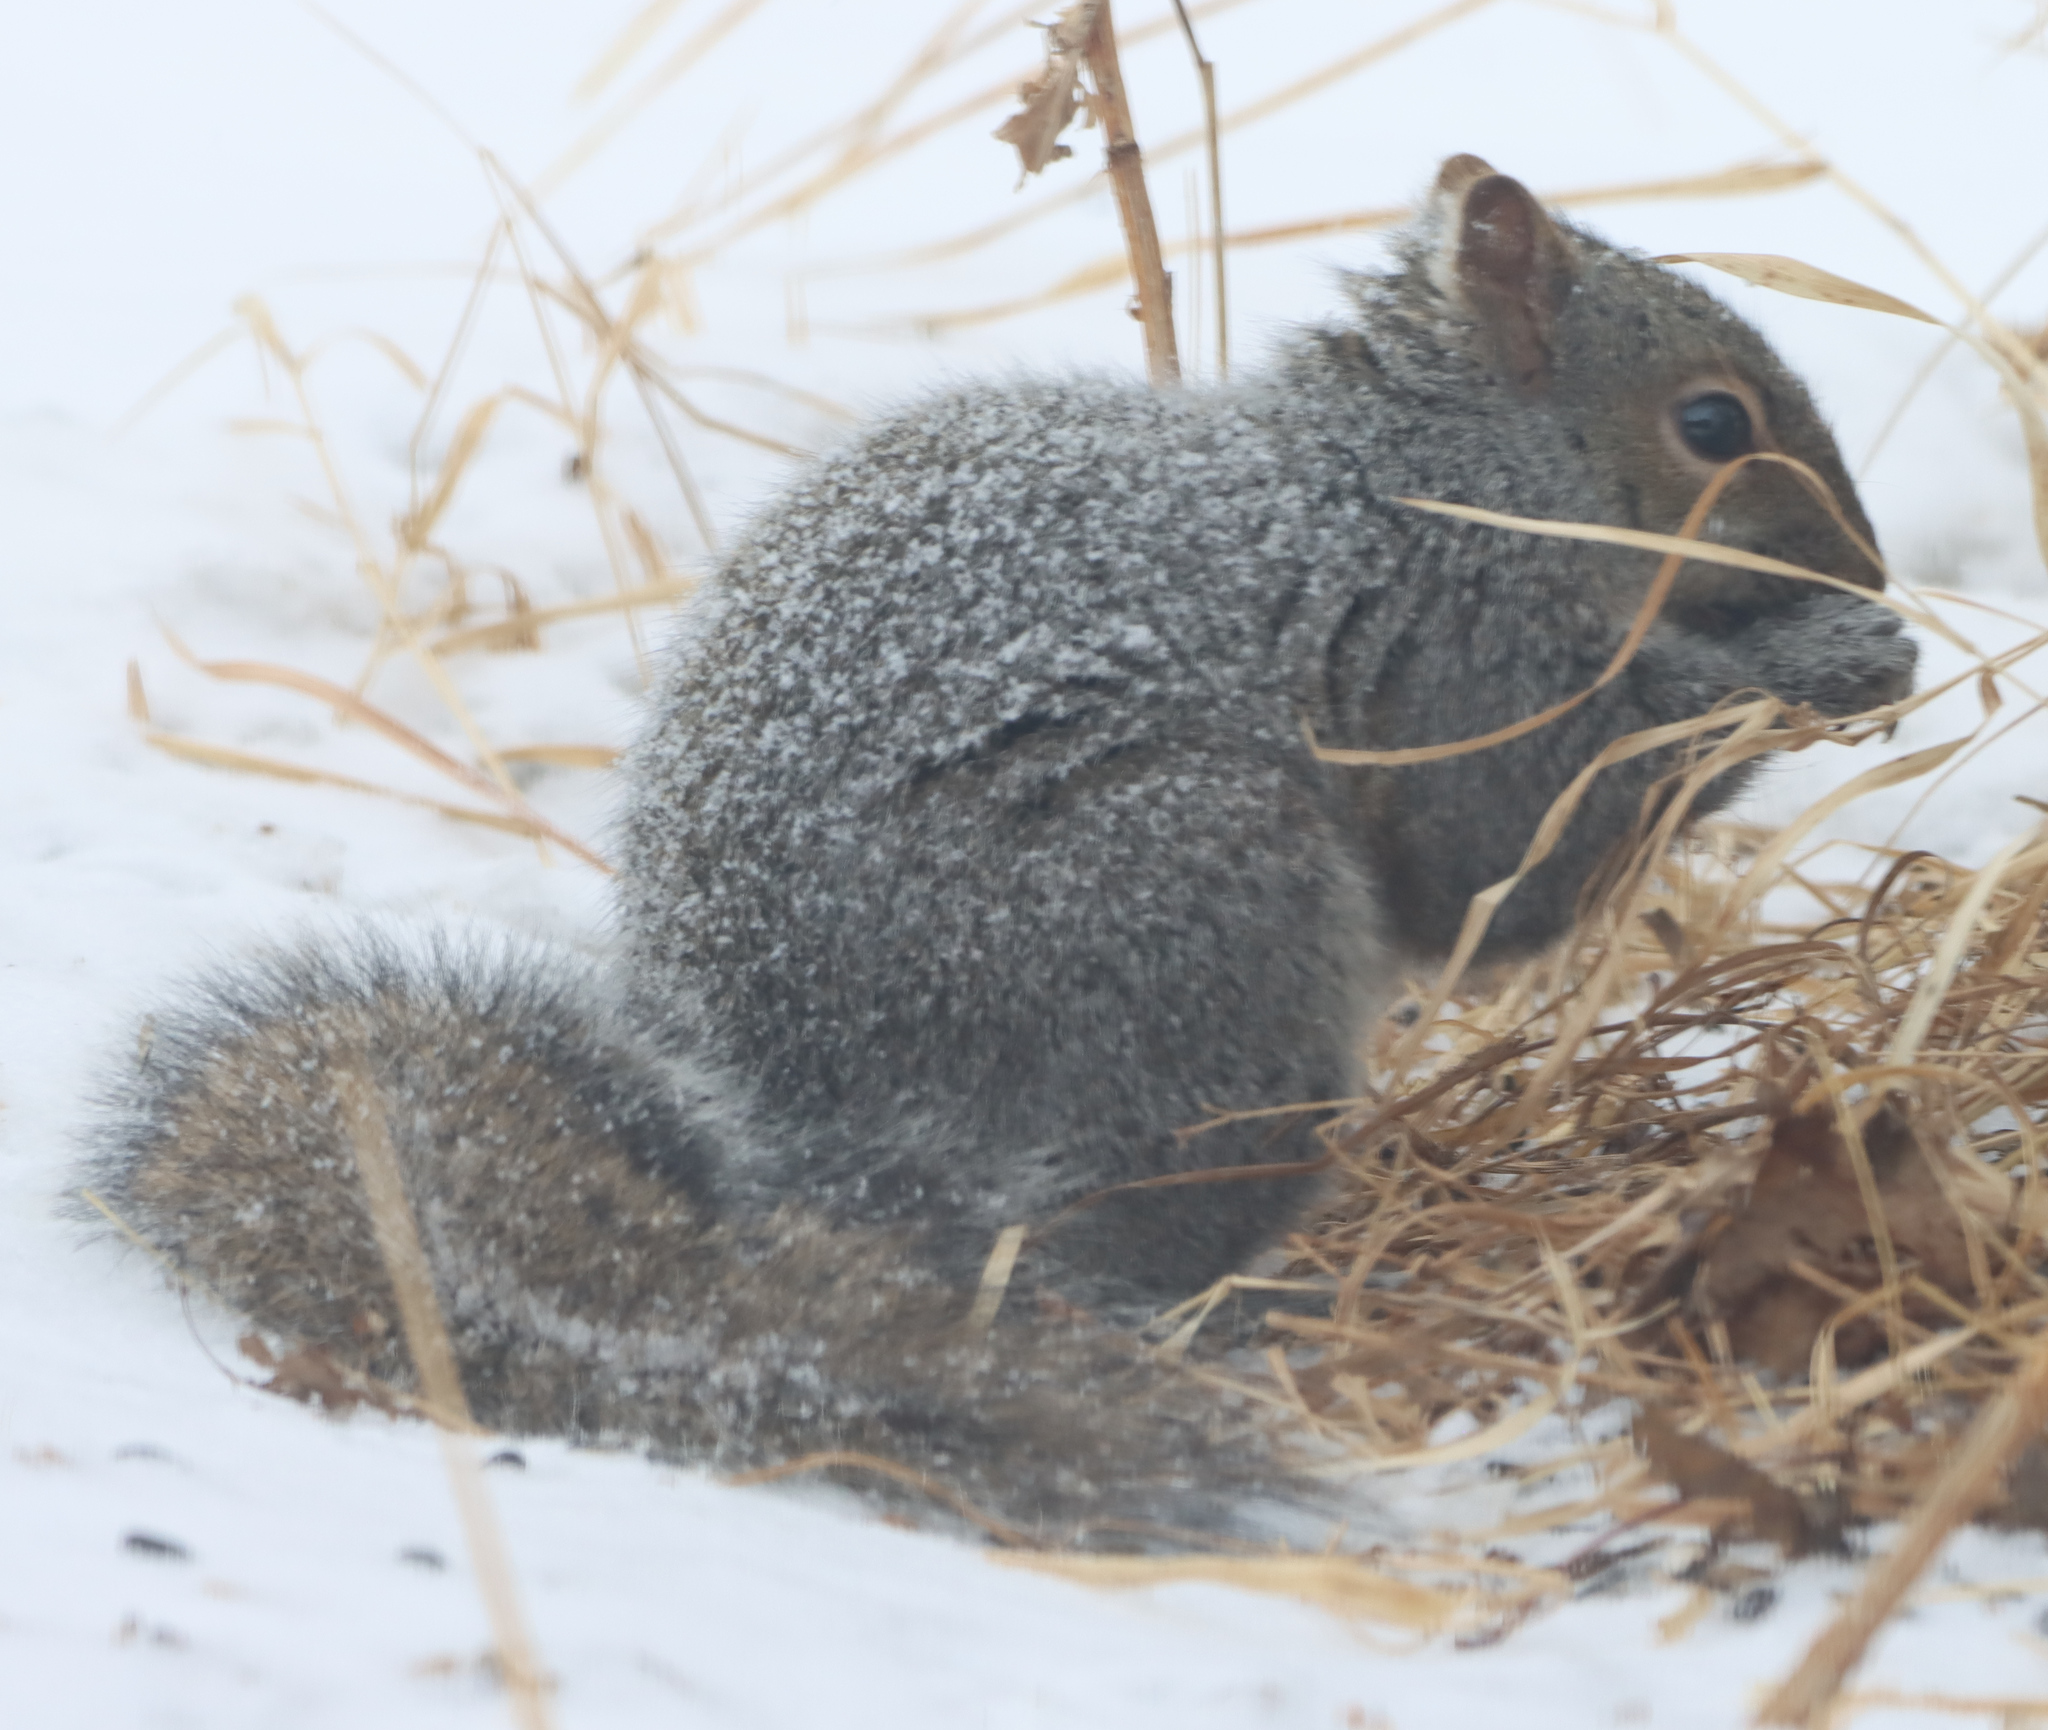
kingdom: Animalia
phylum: Chordata
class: Mammalia
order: Rodentia
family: Sciuridae
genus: Sciurus
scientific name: Sciurus carolinensis
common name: Eastern gray squirrel
